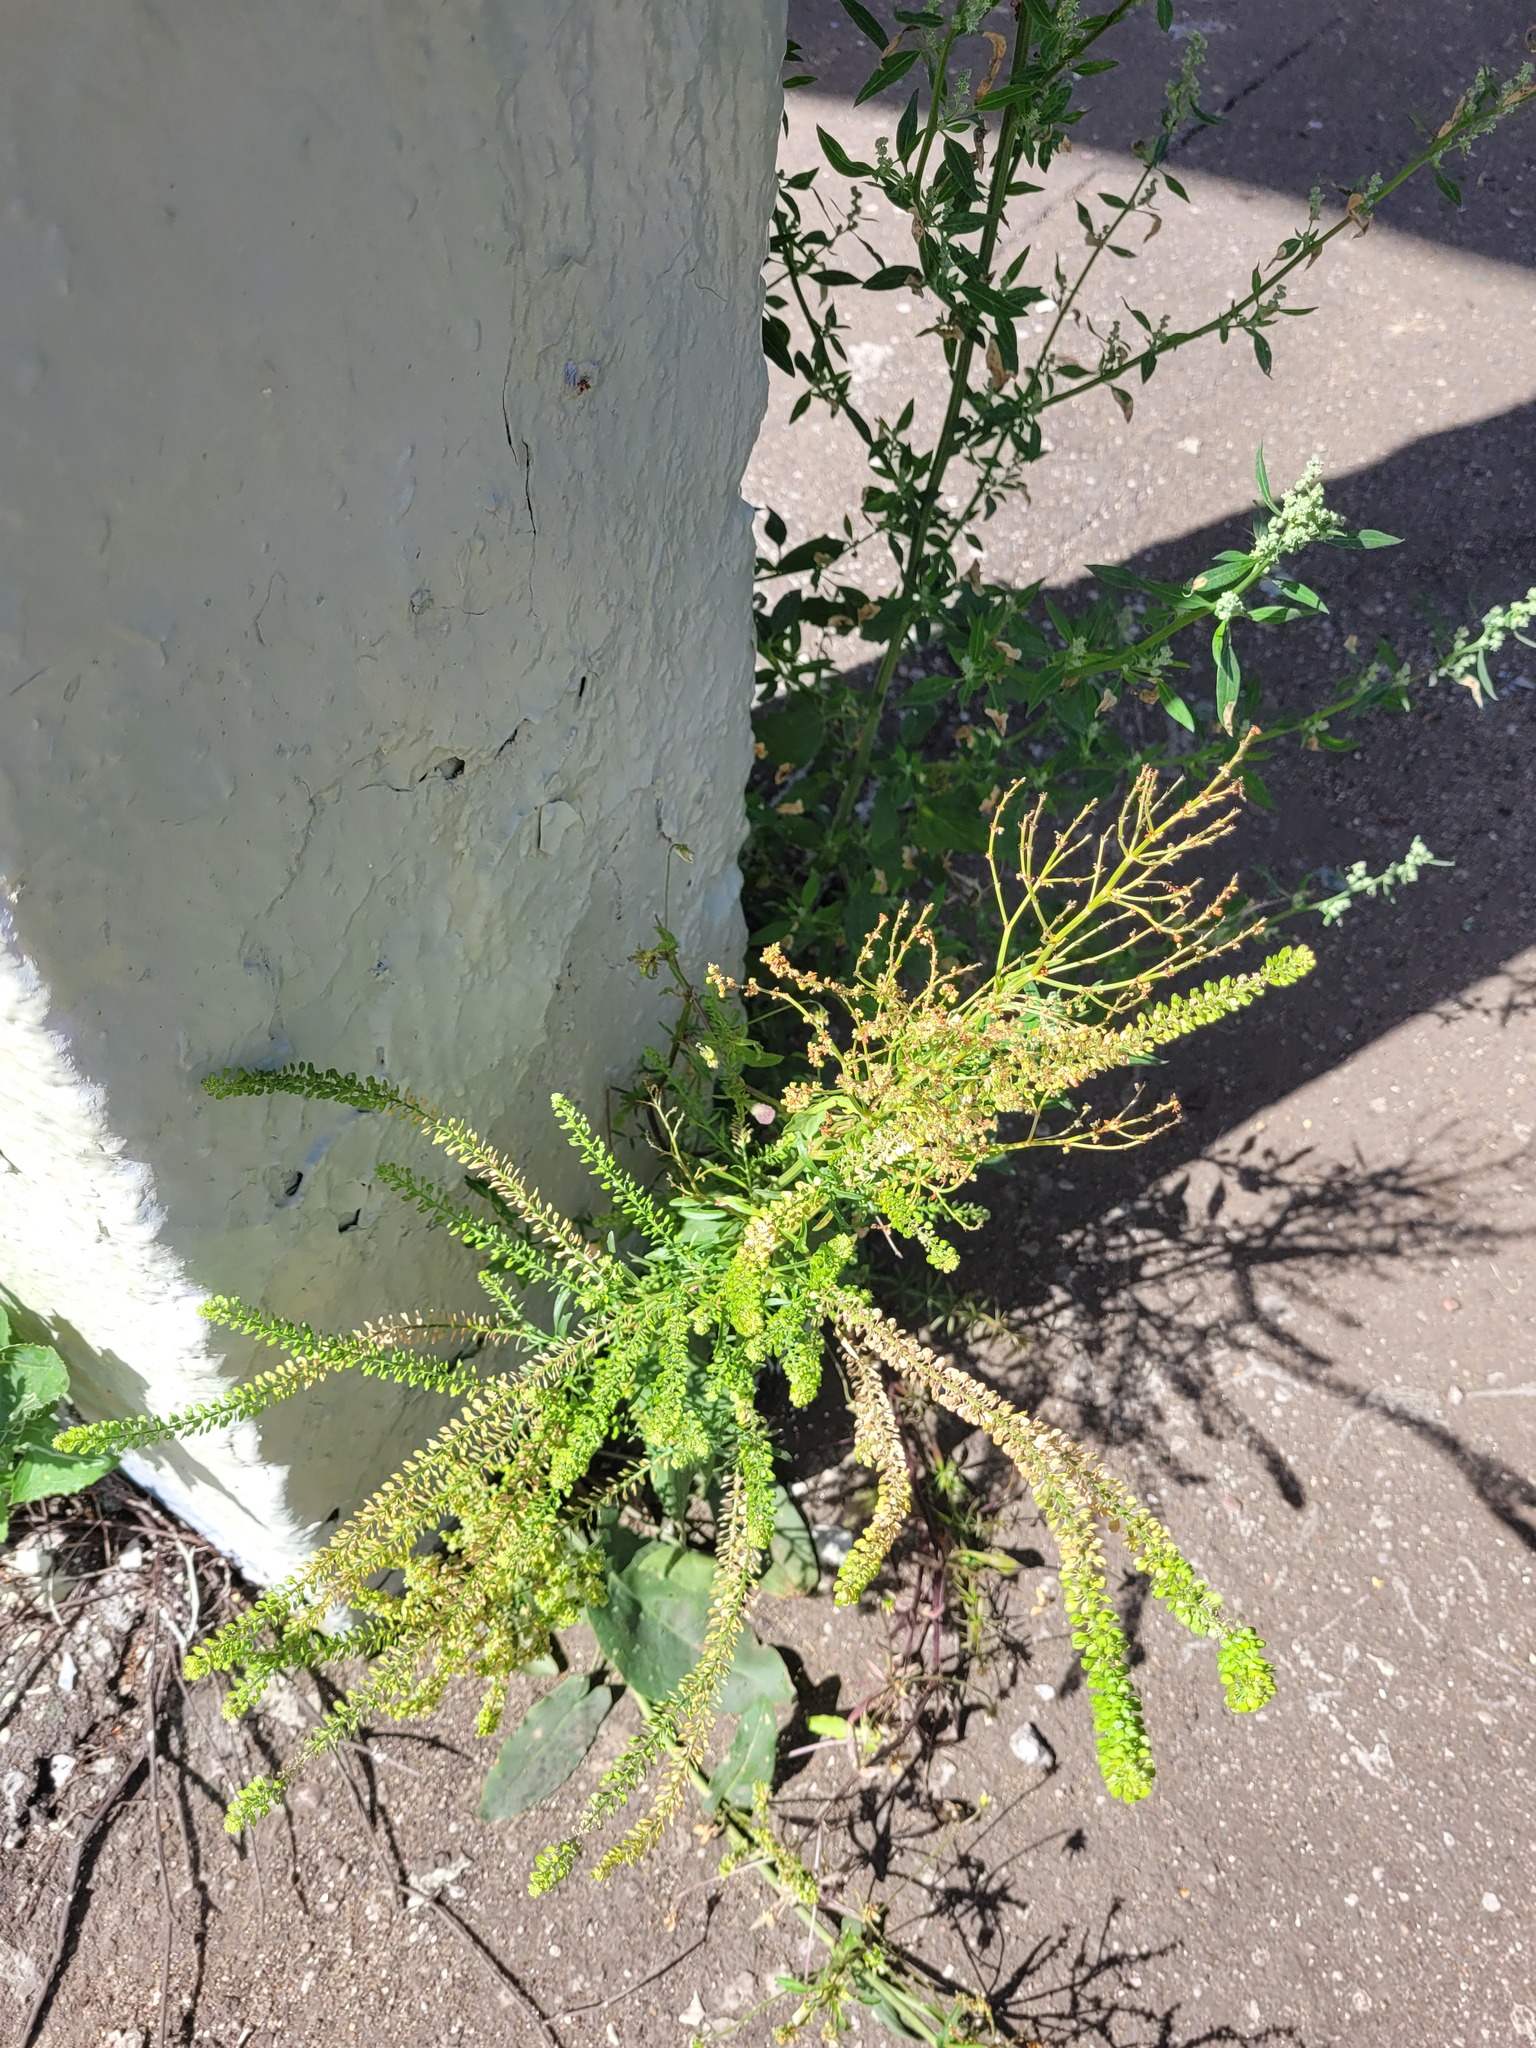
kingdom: Plantae
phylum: Tracheophyta
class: Magnoliopsida
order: Brassicales
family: Brassicaceae
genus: Lepidium
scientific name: Lepidium densiflorum
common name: Miner's pepperwort
